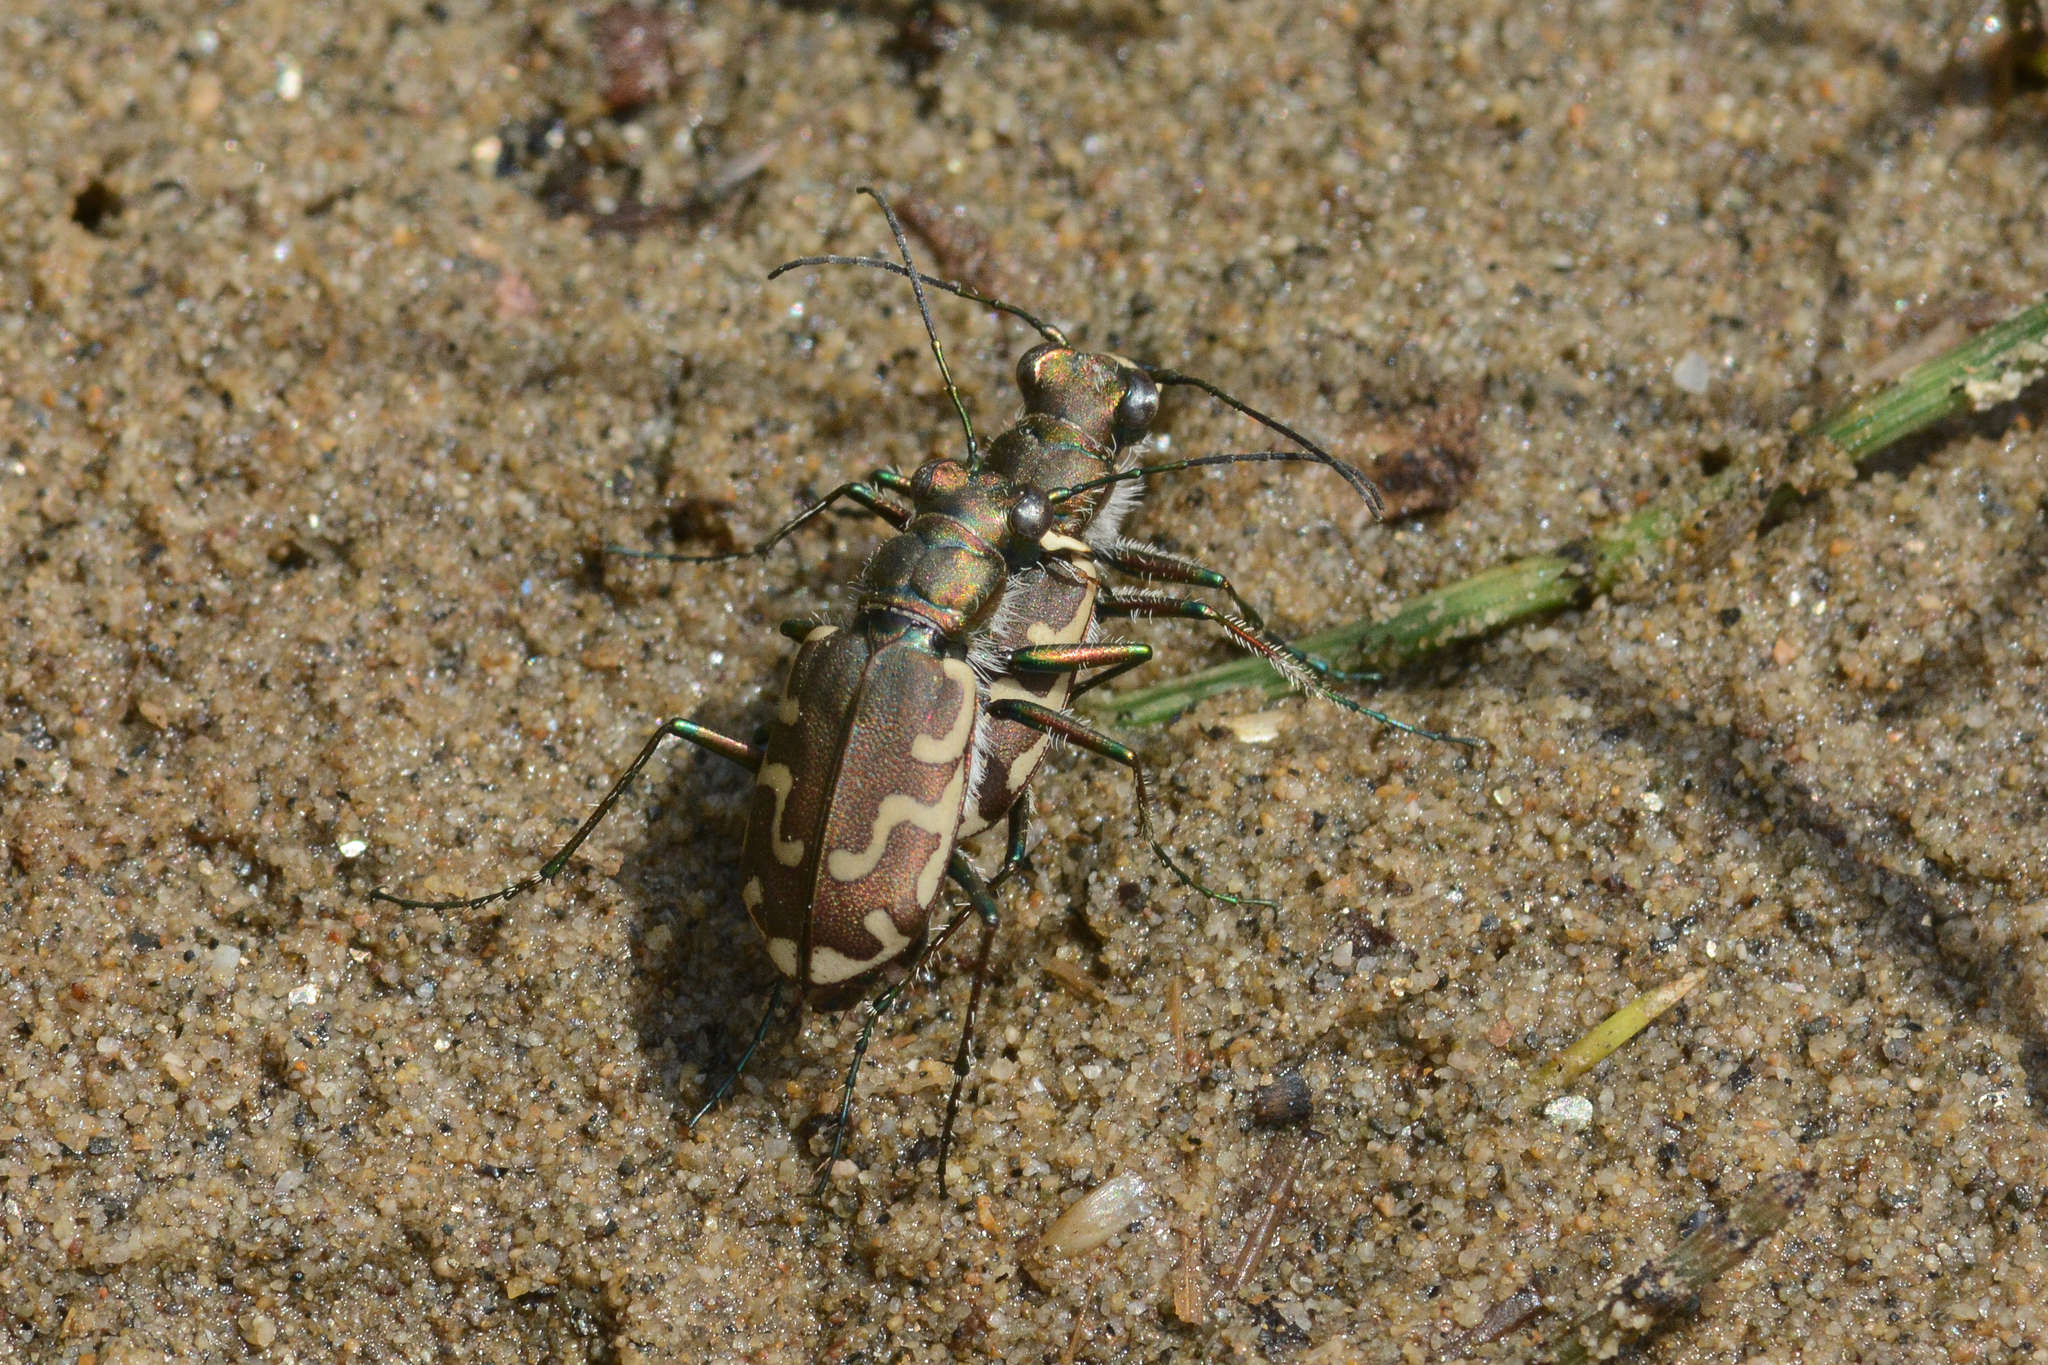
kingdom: Animalia
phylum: Arthropoda
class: Insecta
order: Coleoptera
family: Carabidae
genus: Cicindela
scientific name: Cicindela repanda
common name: Bronzed tiger beetle
